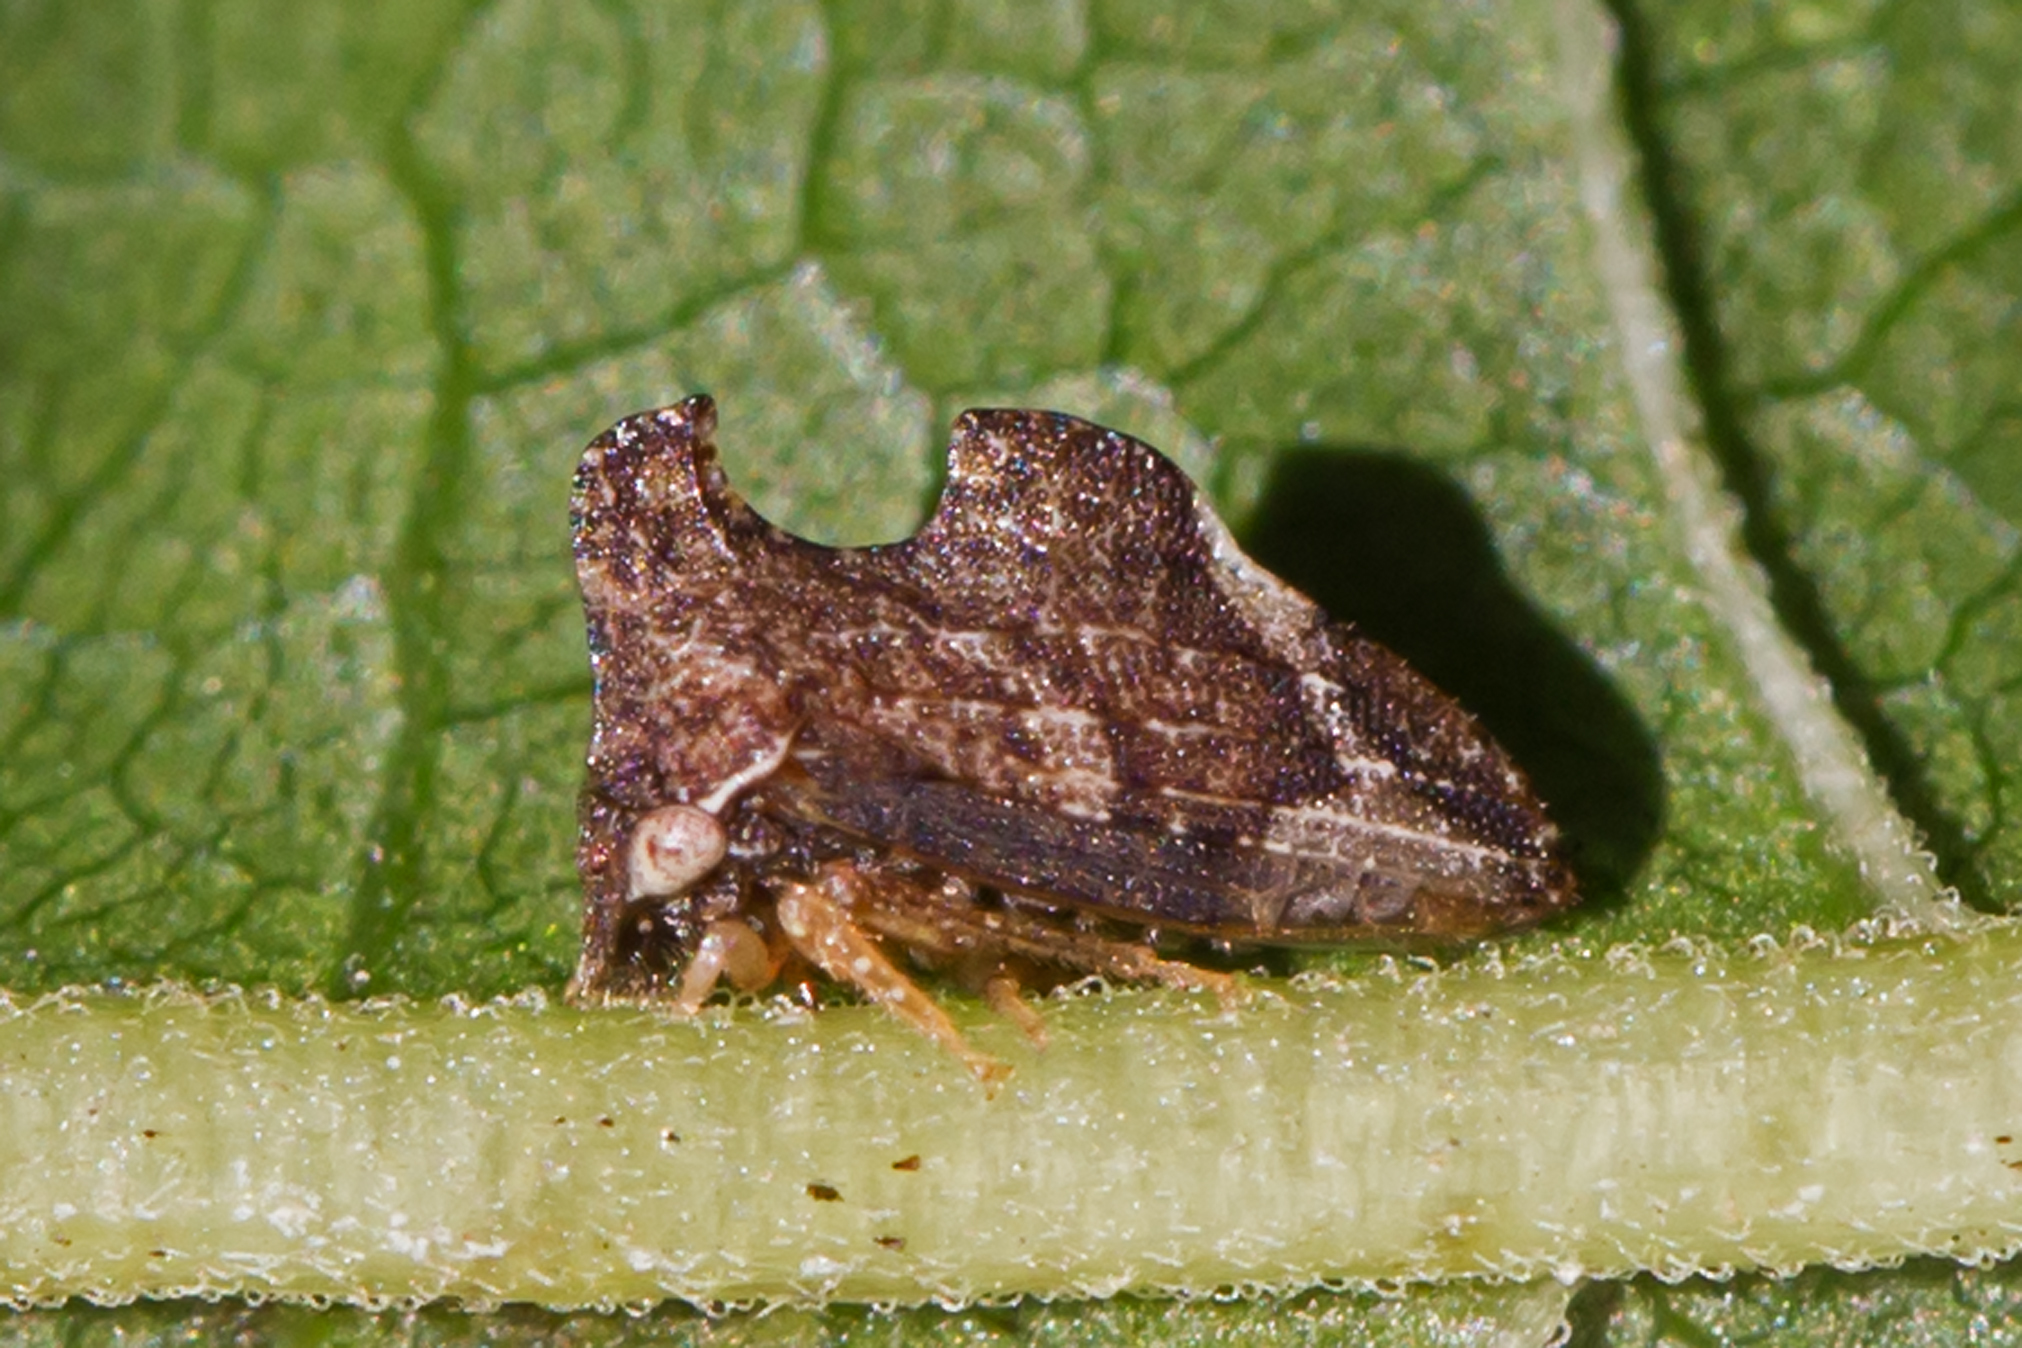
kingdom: Animalia
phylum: Arthropoda
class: Insecta
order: Hemiptera
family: Membracidae
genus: Entylia
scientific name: Entylia carinata
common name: Keeled treehopper
